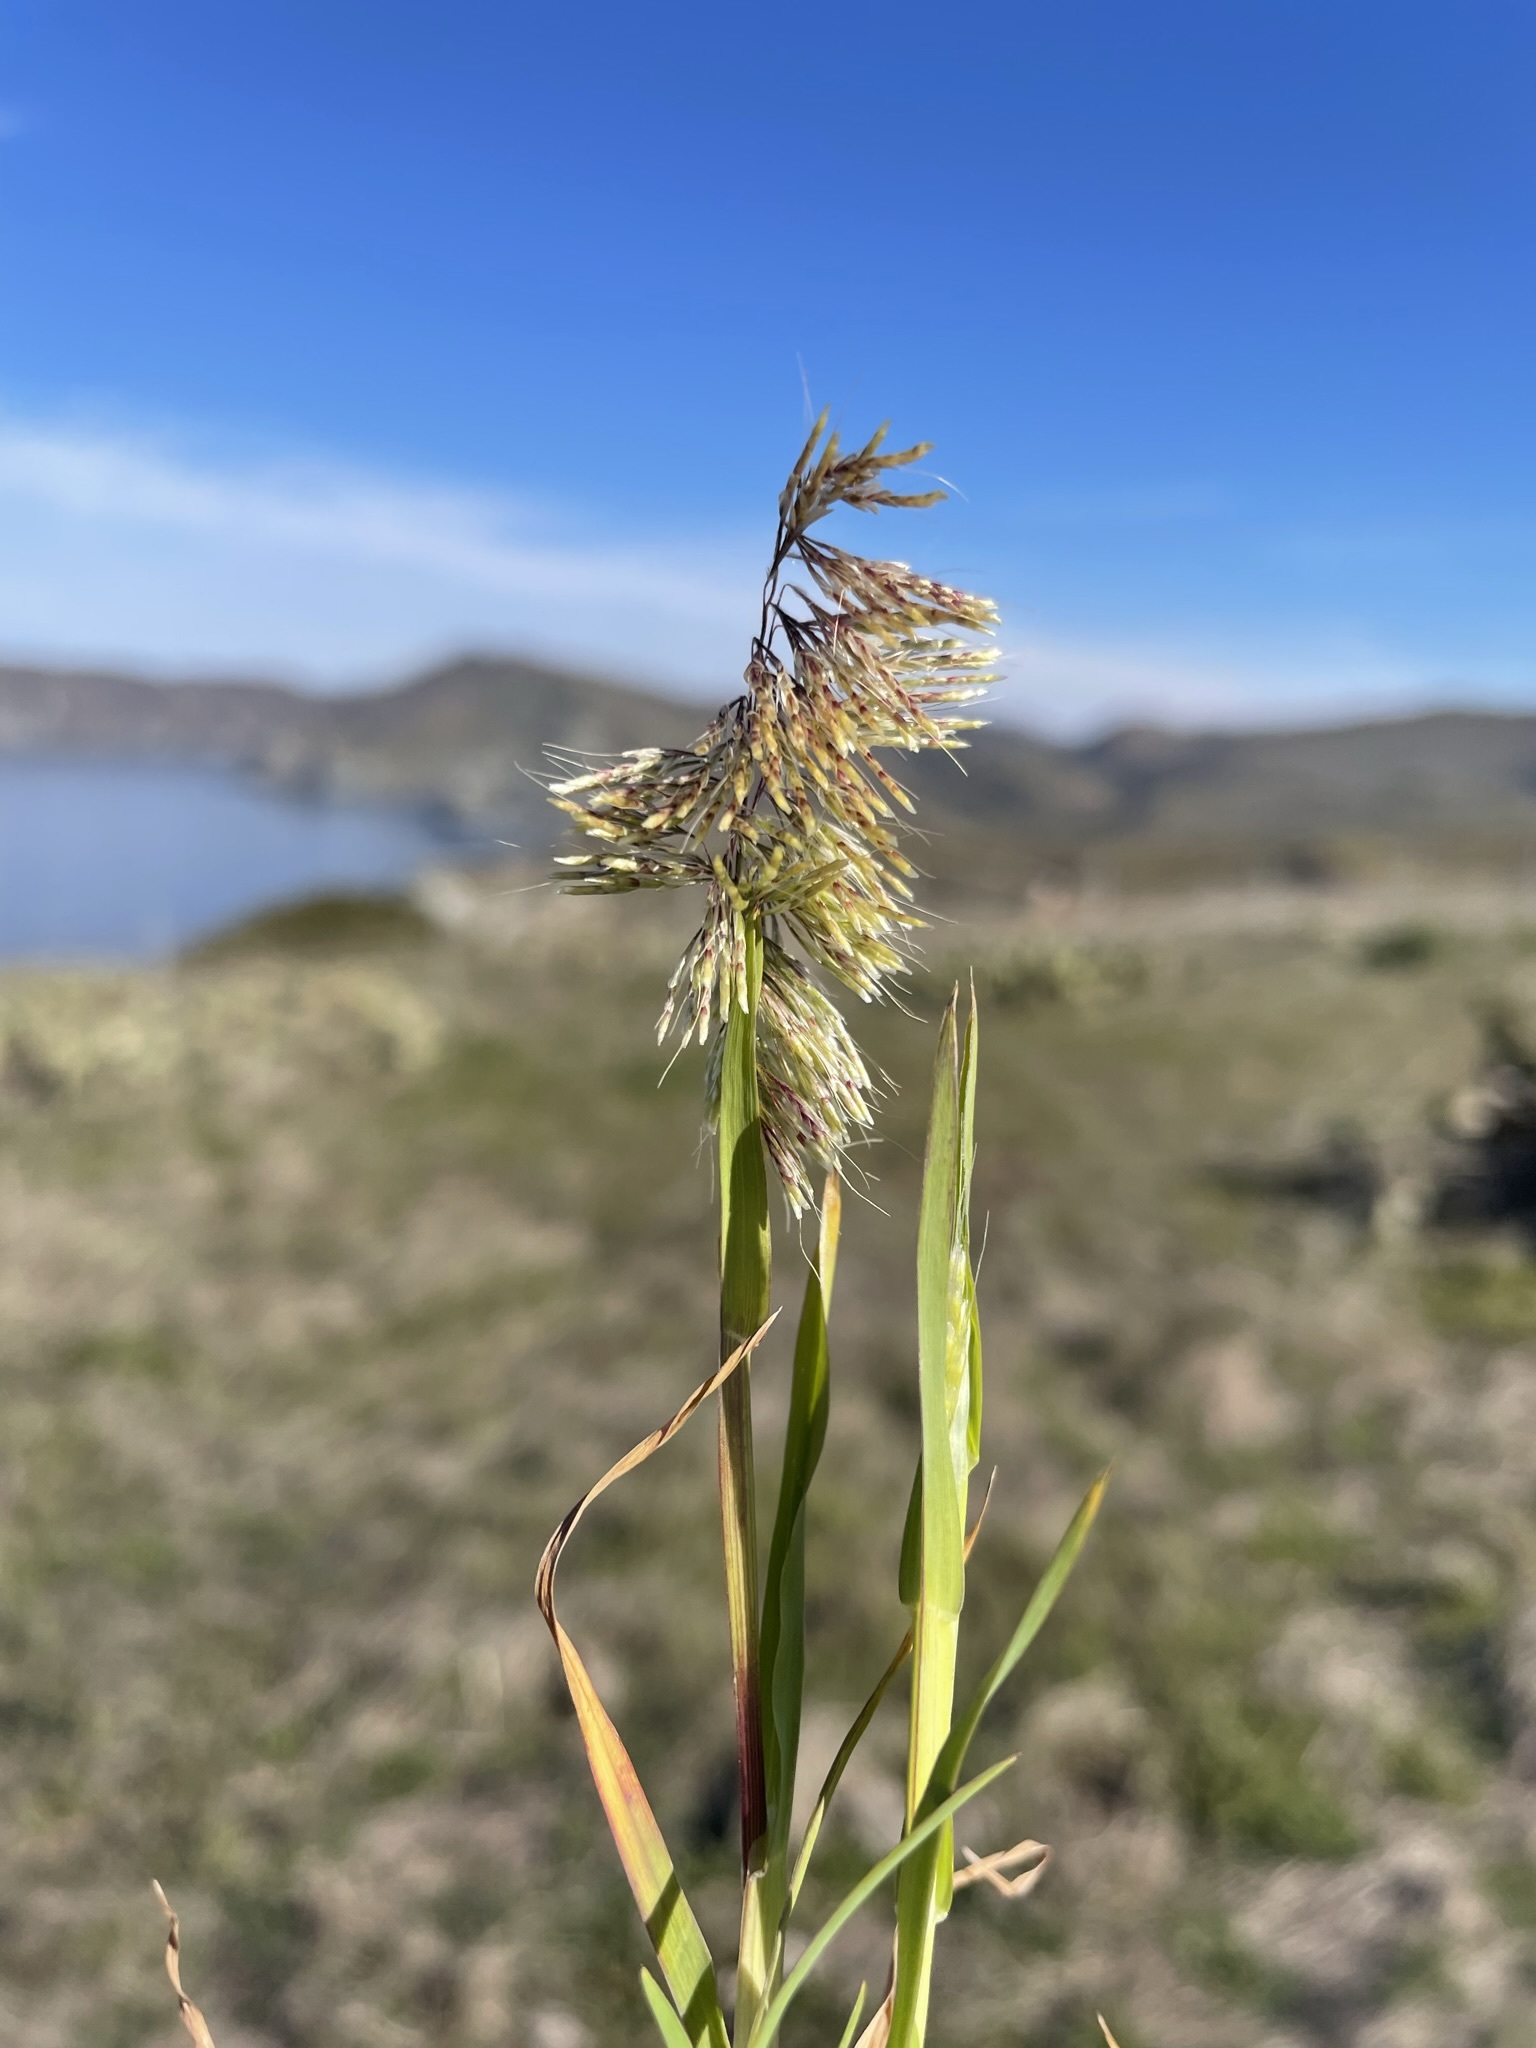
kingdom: Plantae
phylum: Tracheophyta
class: Liliopsida
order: Poales
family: Poaceae
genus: Lamarckia
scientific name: Lamarckia aurea
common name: Golden dog's-tail
